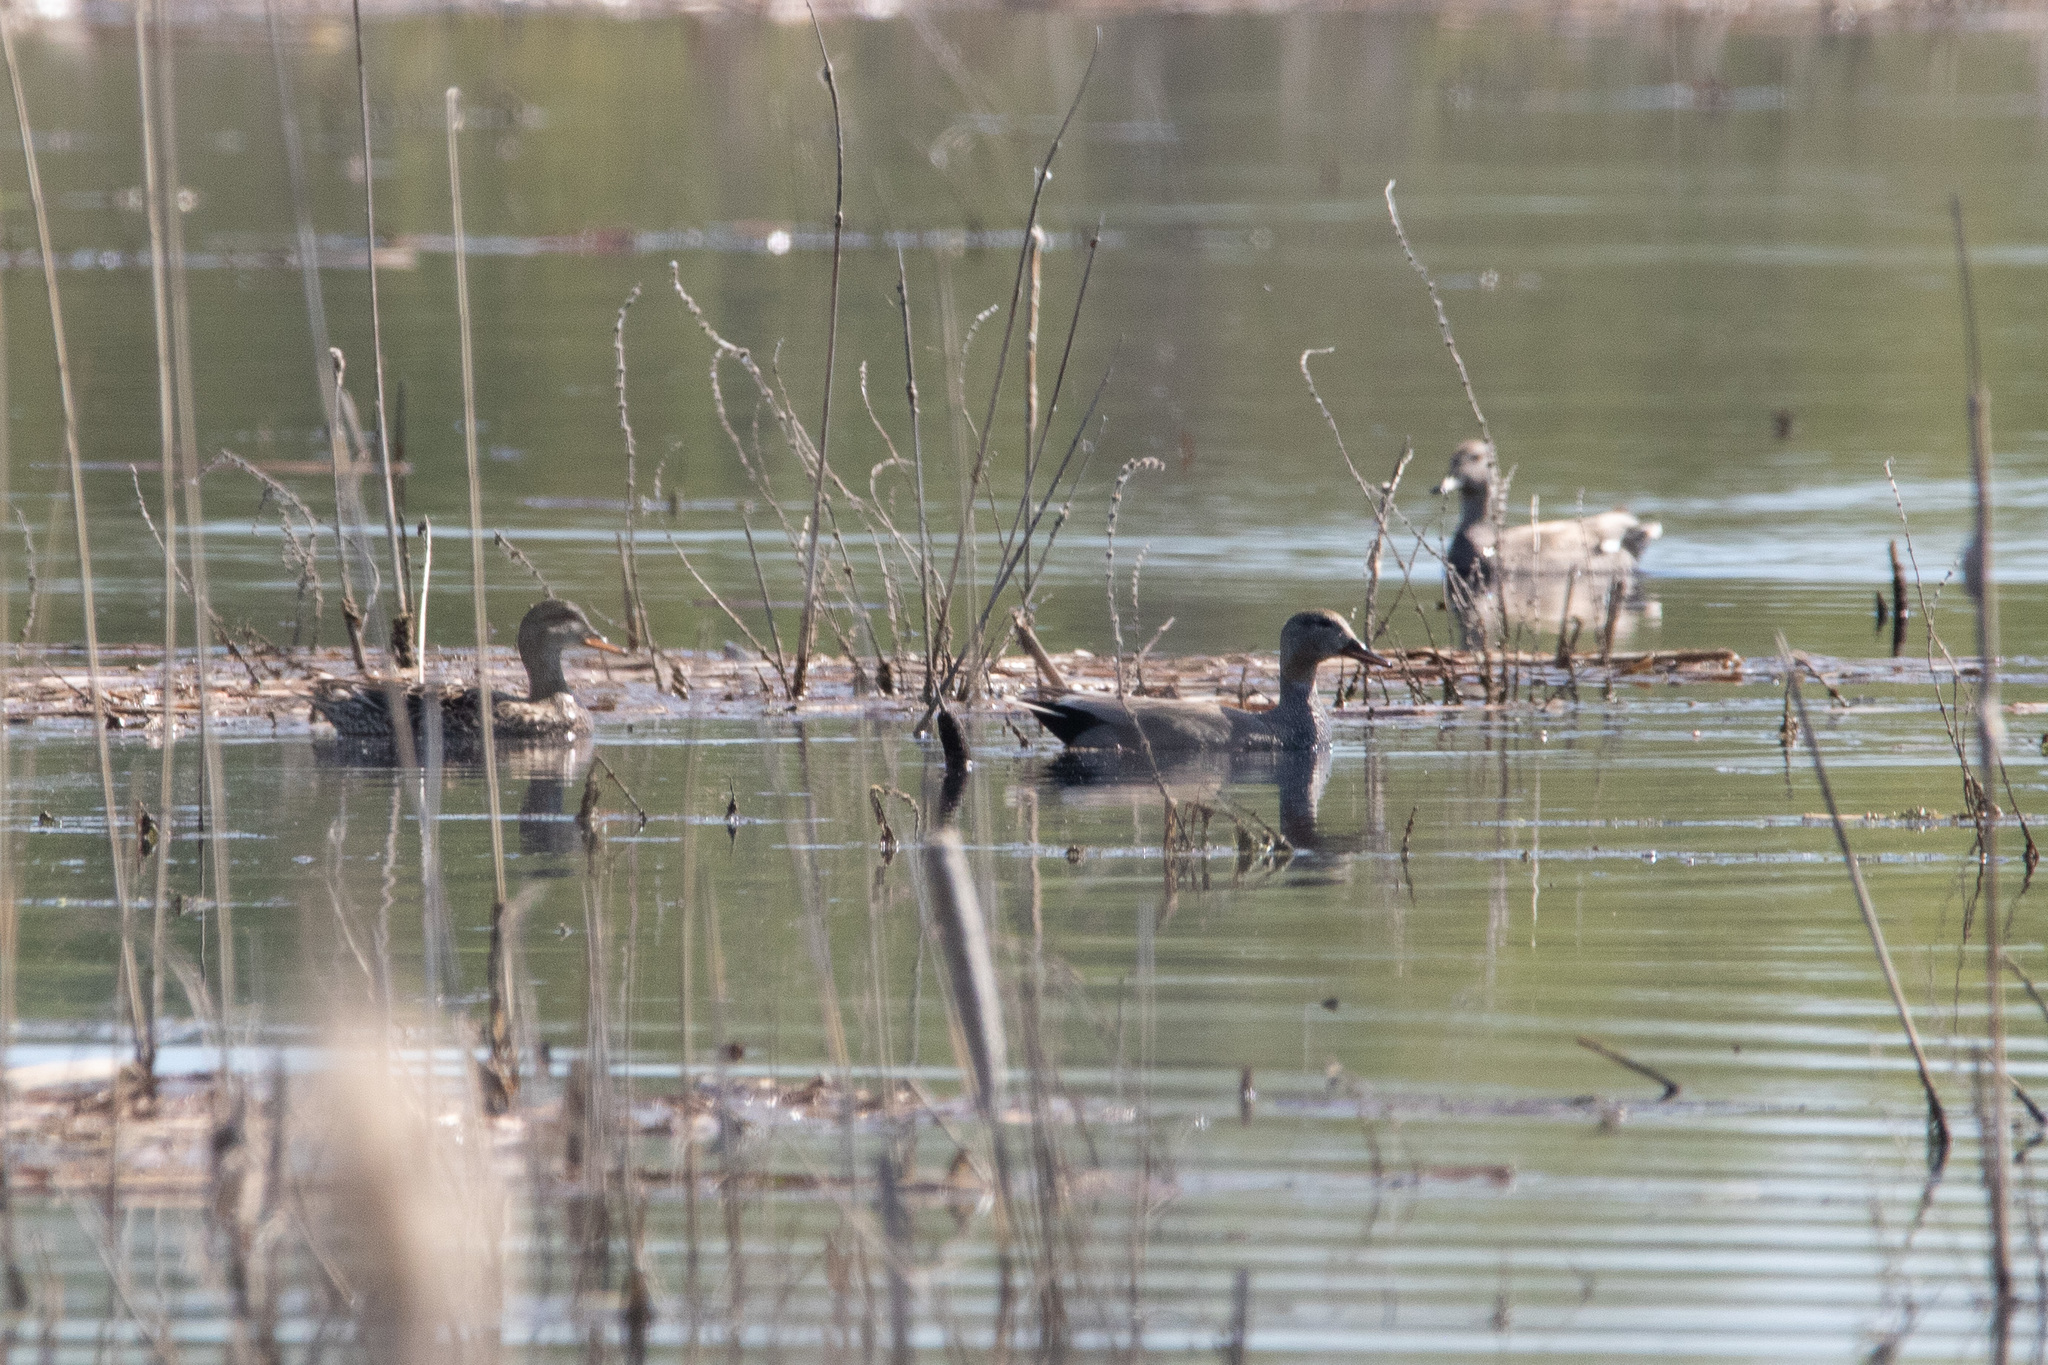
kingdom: Animalia
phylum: Chordata
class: Aves
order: Anseriformes
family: Anatidae
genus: Mareca
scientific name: Mareca strepera
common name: Gadwall
